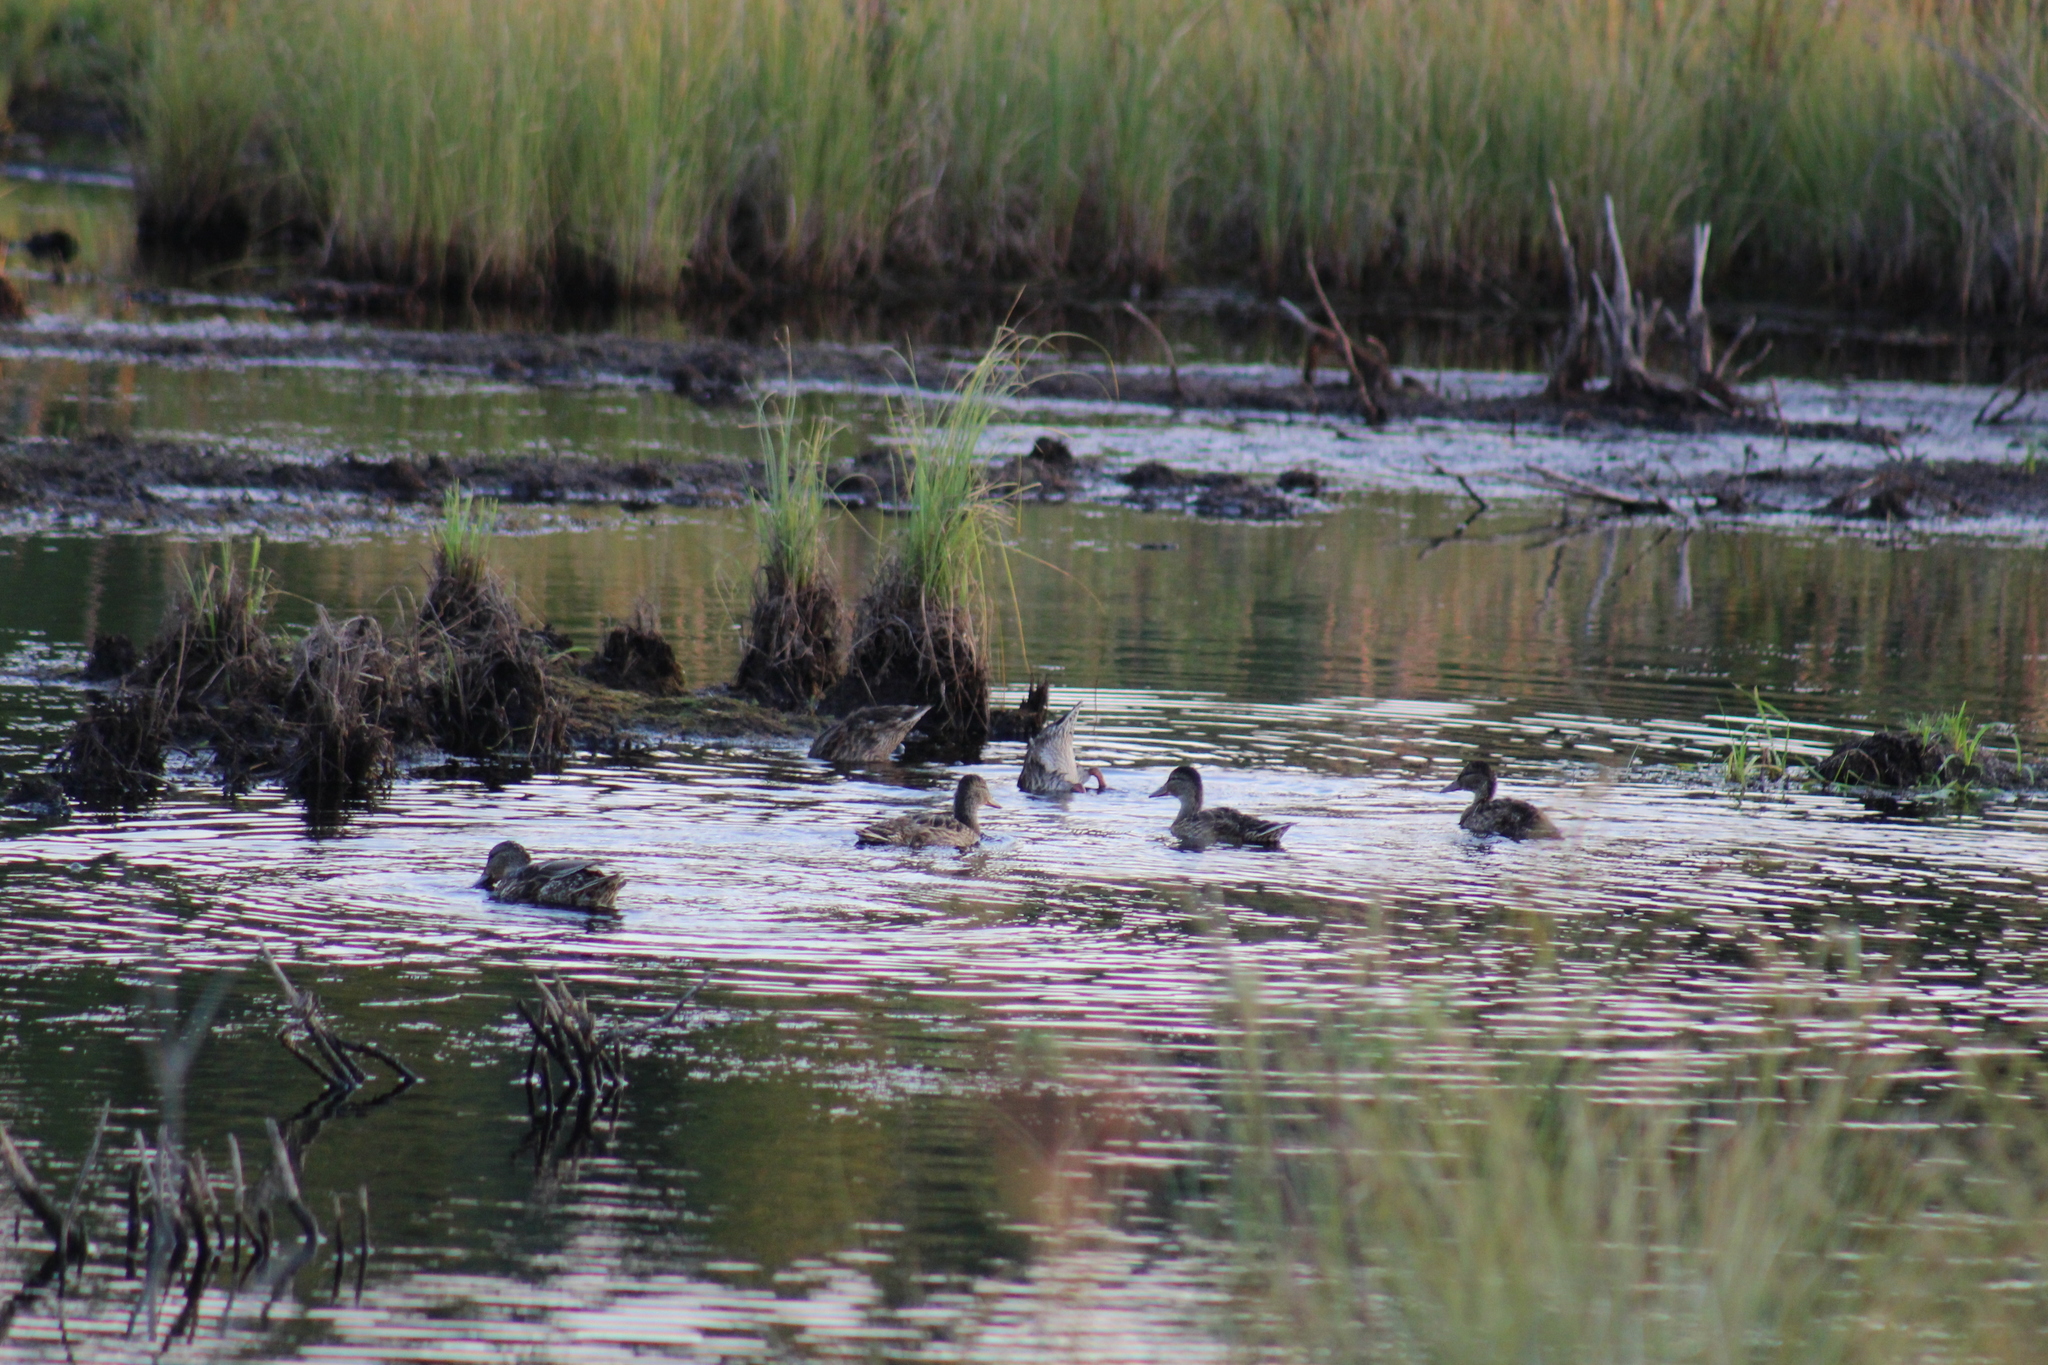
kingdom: Animalia
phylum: Chordata
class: Aves
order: Anseriformes
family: Anatidae
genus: Anas
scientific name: Anas platyrhynchos
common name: Mallard
